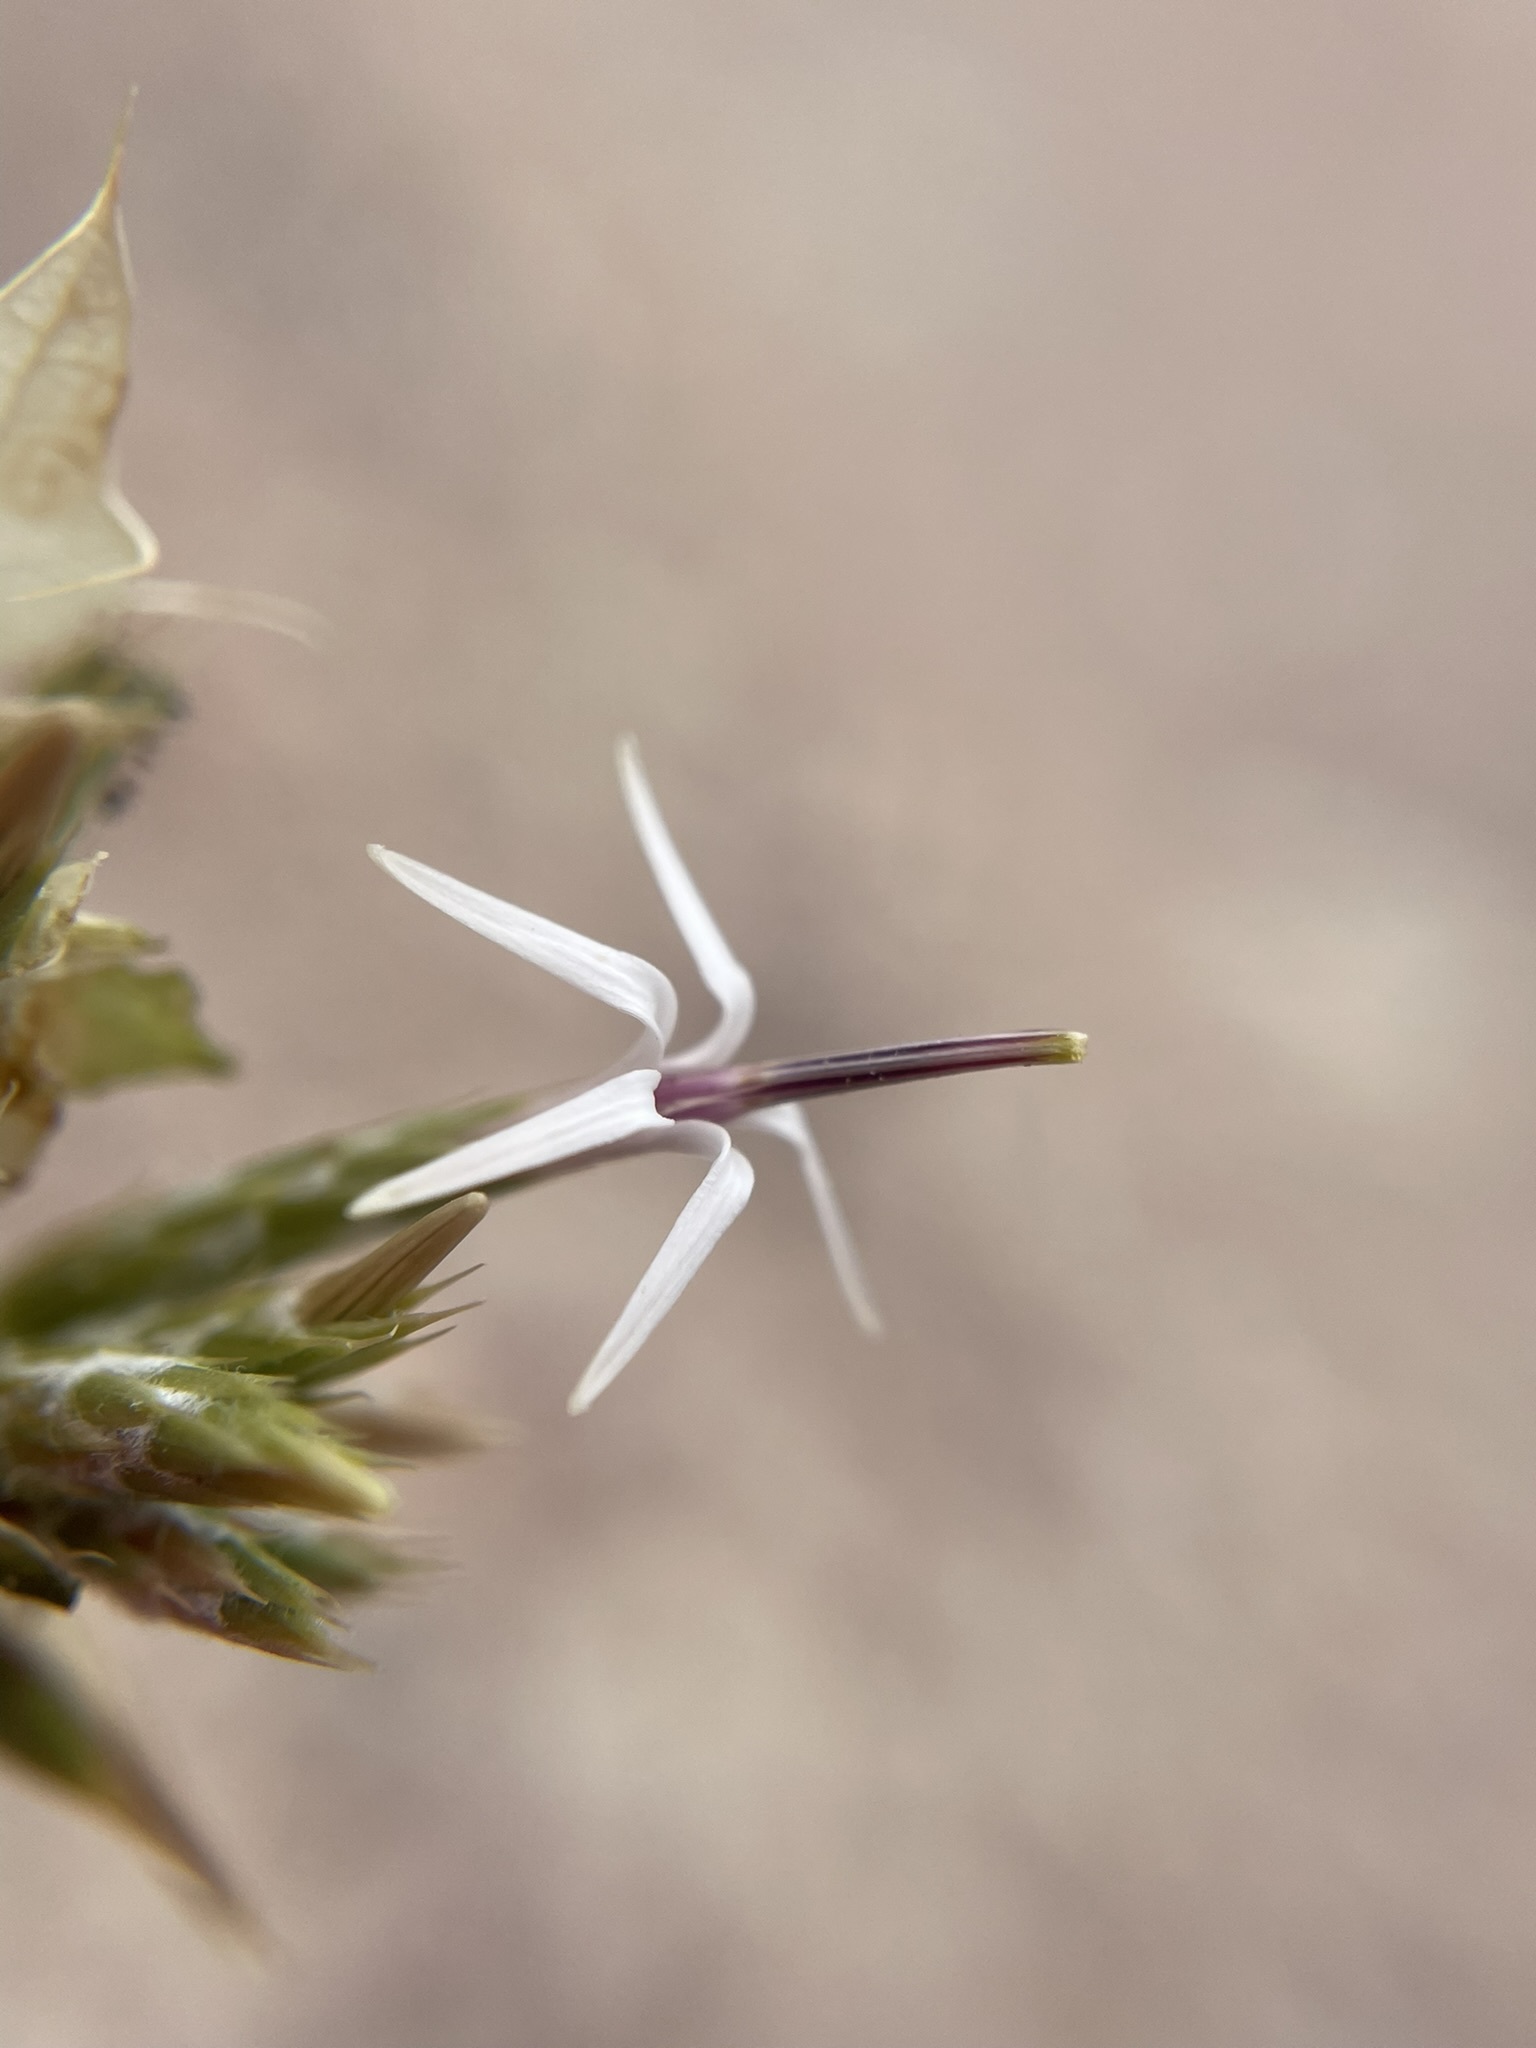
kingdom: Plantae
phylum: Tracheophyta
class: Magnoliopsida
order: Asterales
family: Asteraceae
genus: Hecastocleis
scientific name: Hecastocleis shockleyi
